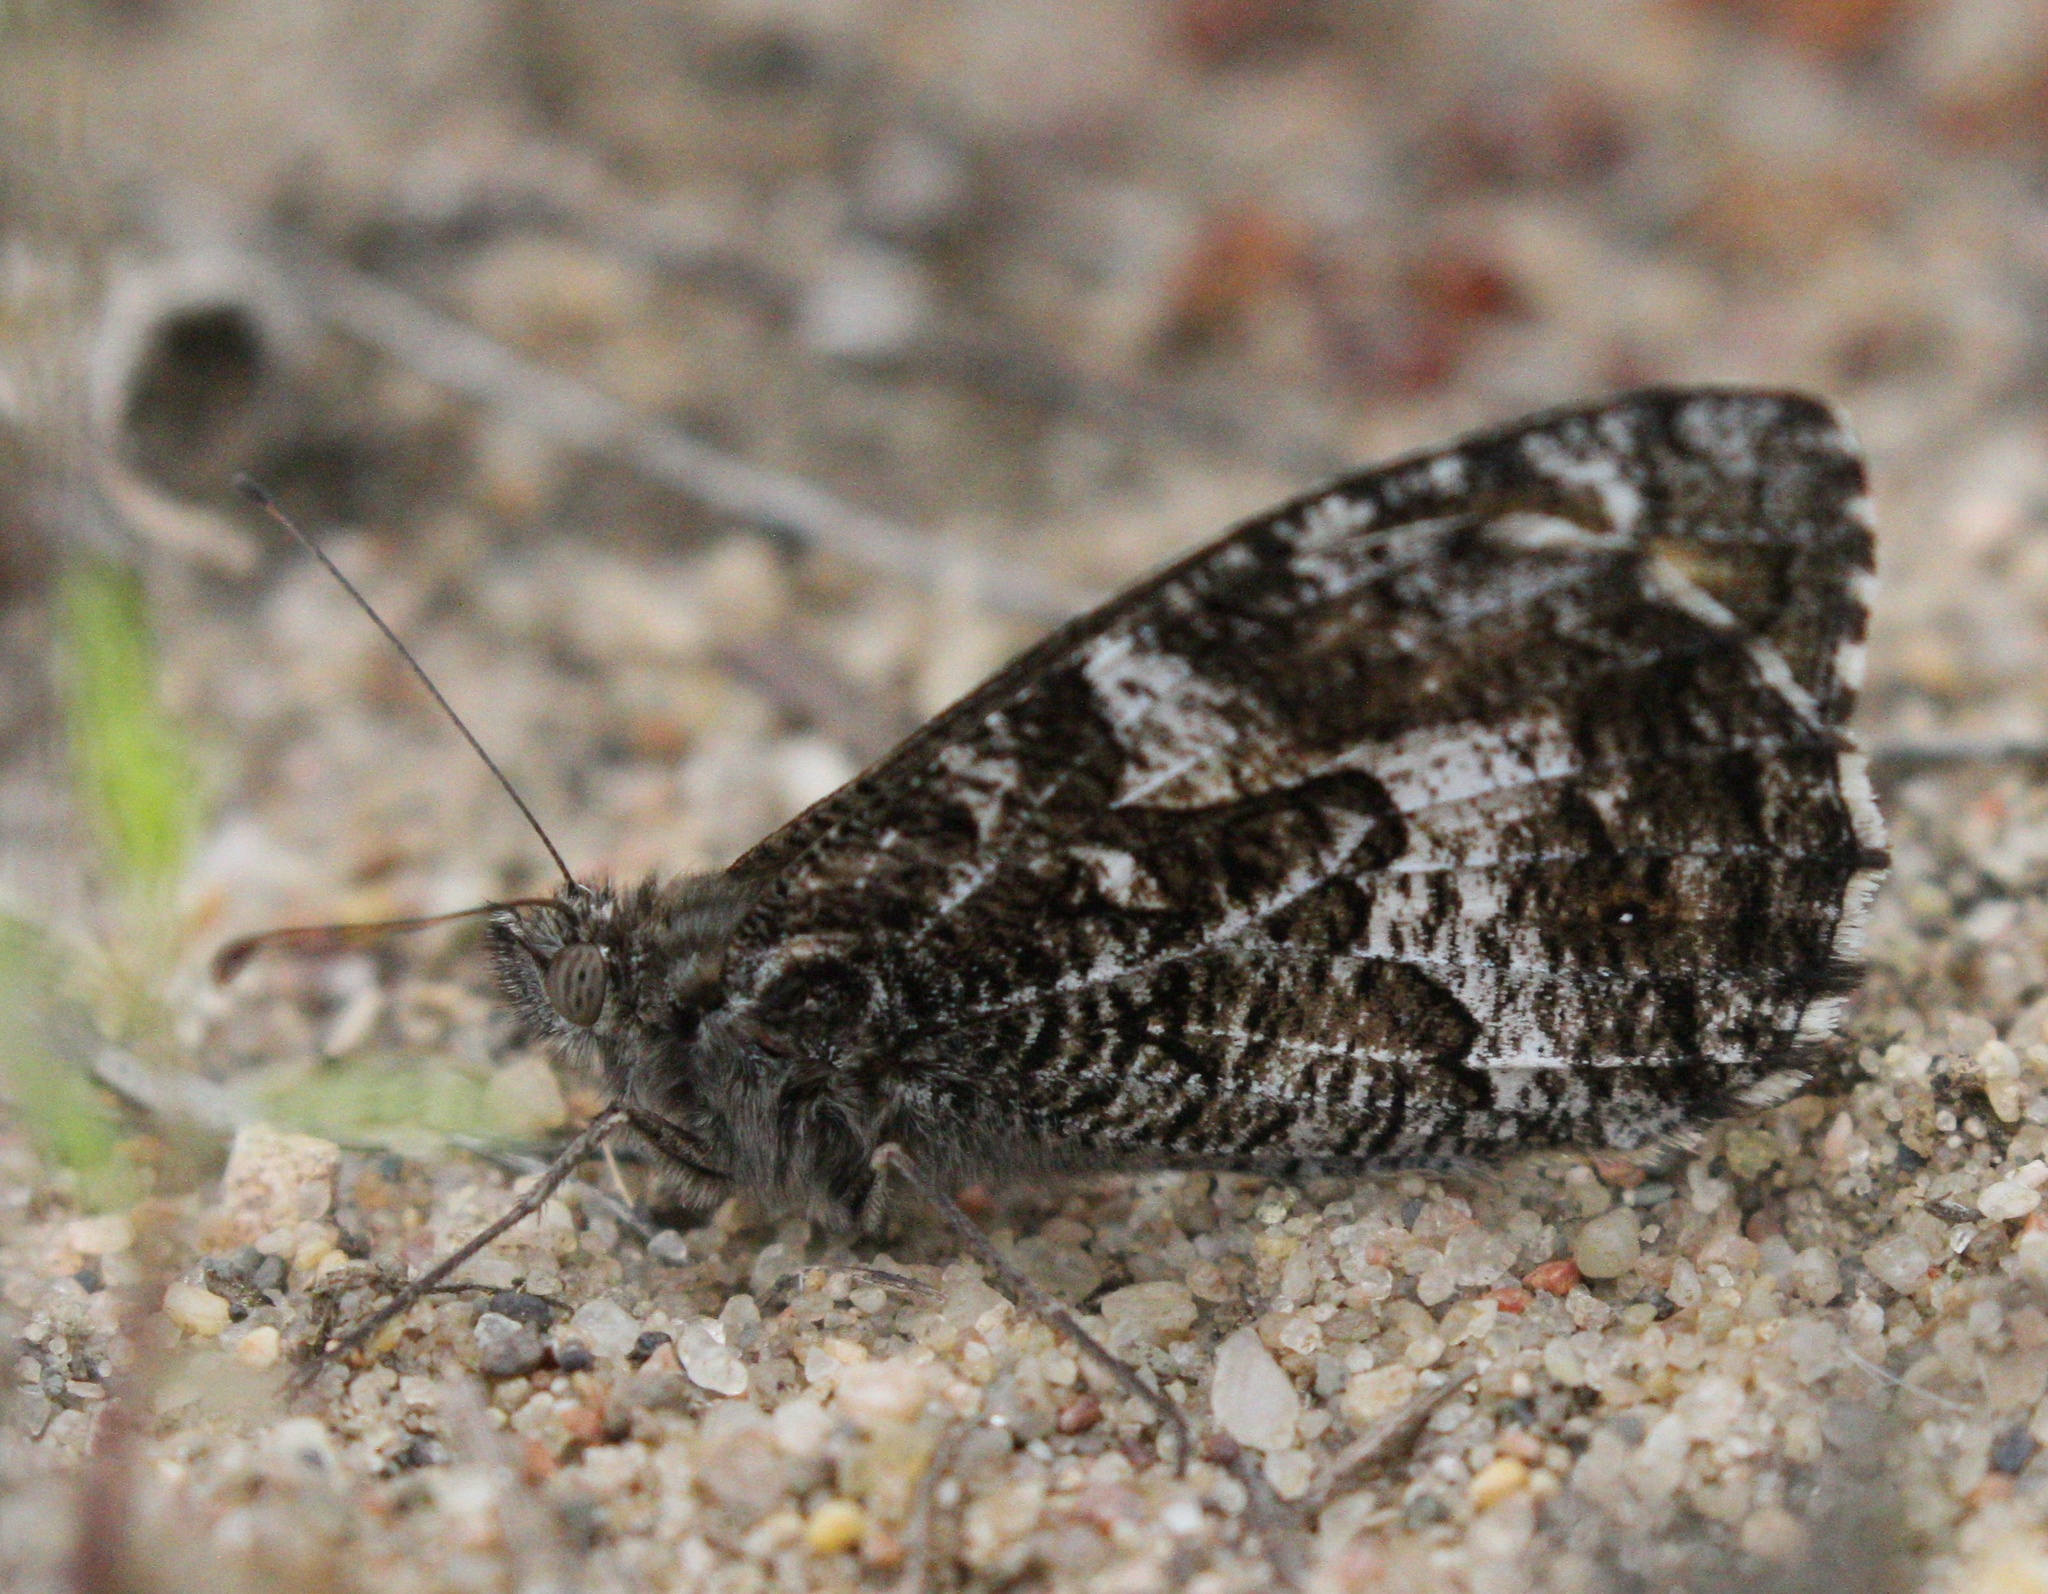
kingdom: Animalia
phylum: Arthropoda
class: Insecta
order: Lepidoptera
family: Nymphalidae
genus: Hipparchia
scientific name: Hipparchia semele
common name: Grayling
